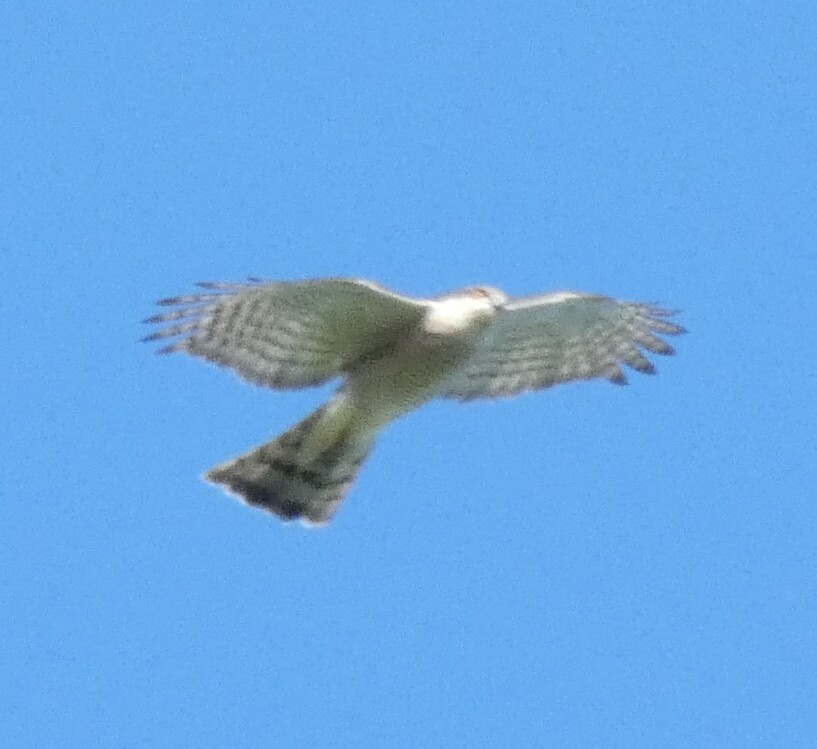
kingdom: Animalia
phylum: Chordata
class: Aves
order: Accipitriformes
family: Accipitridae
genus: Accipiter
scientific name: Accipiter nisus
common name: Eurasian sparrowhawk
